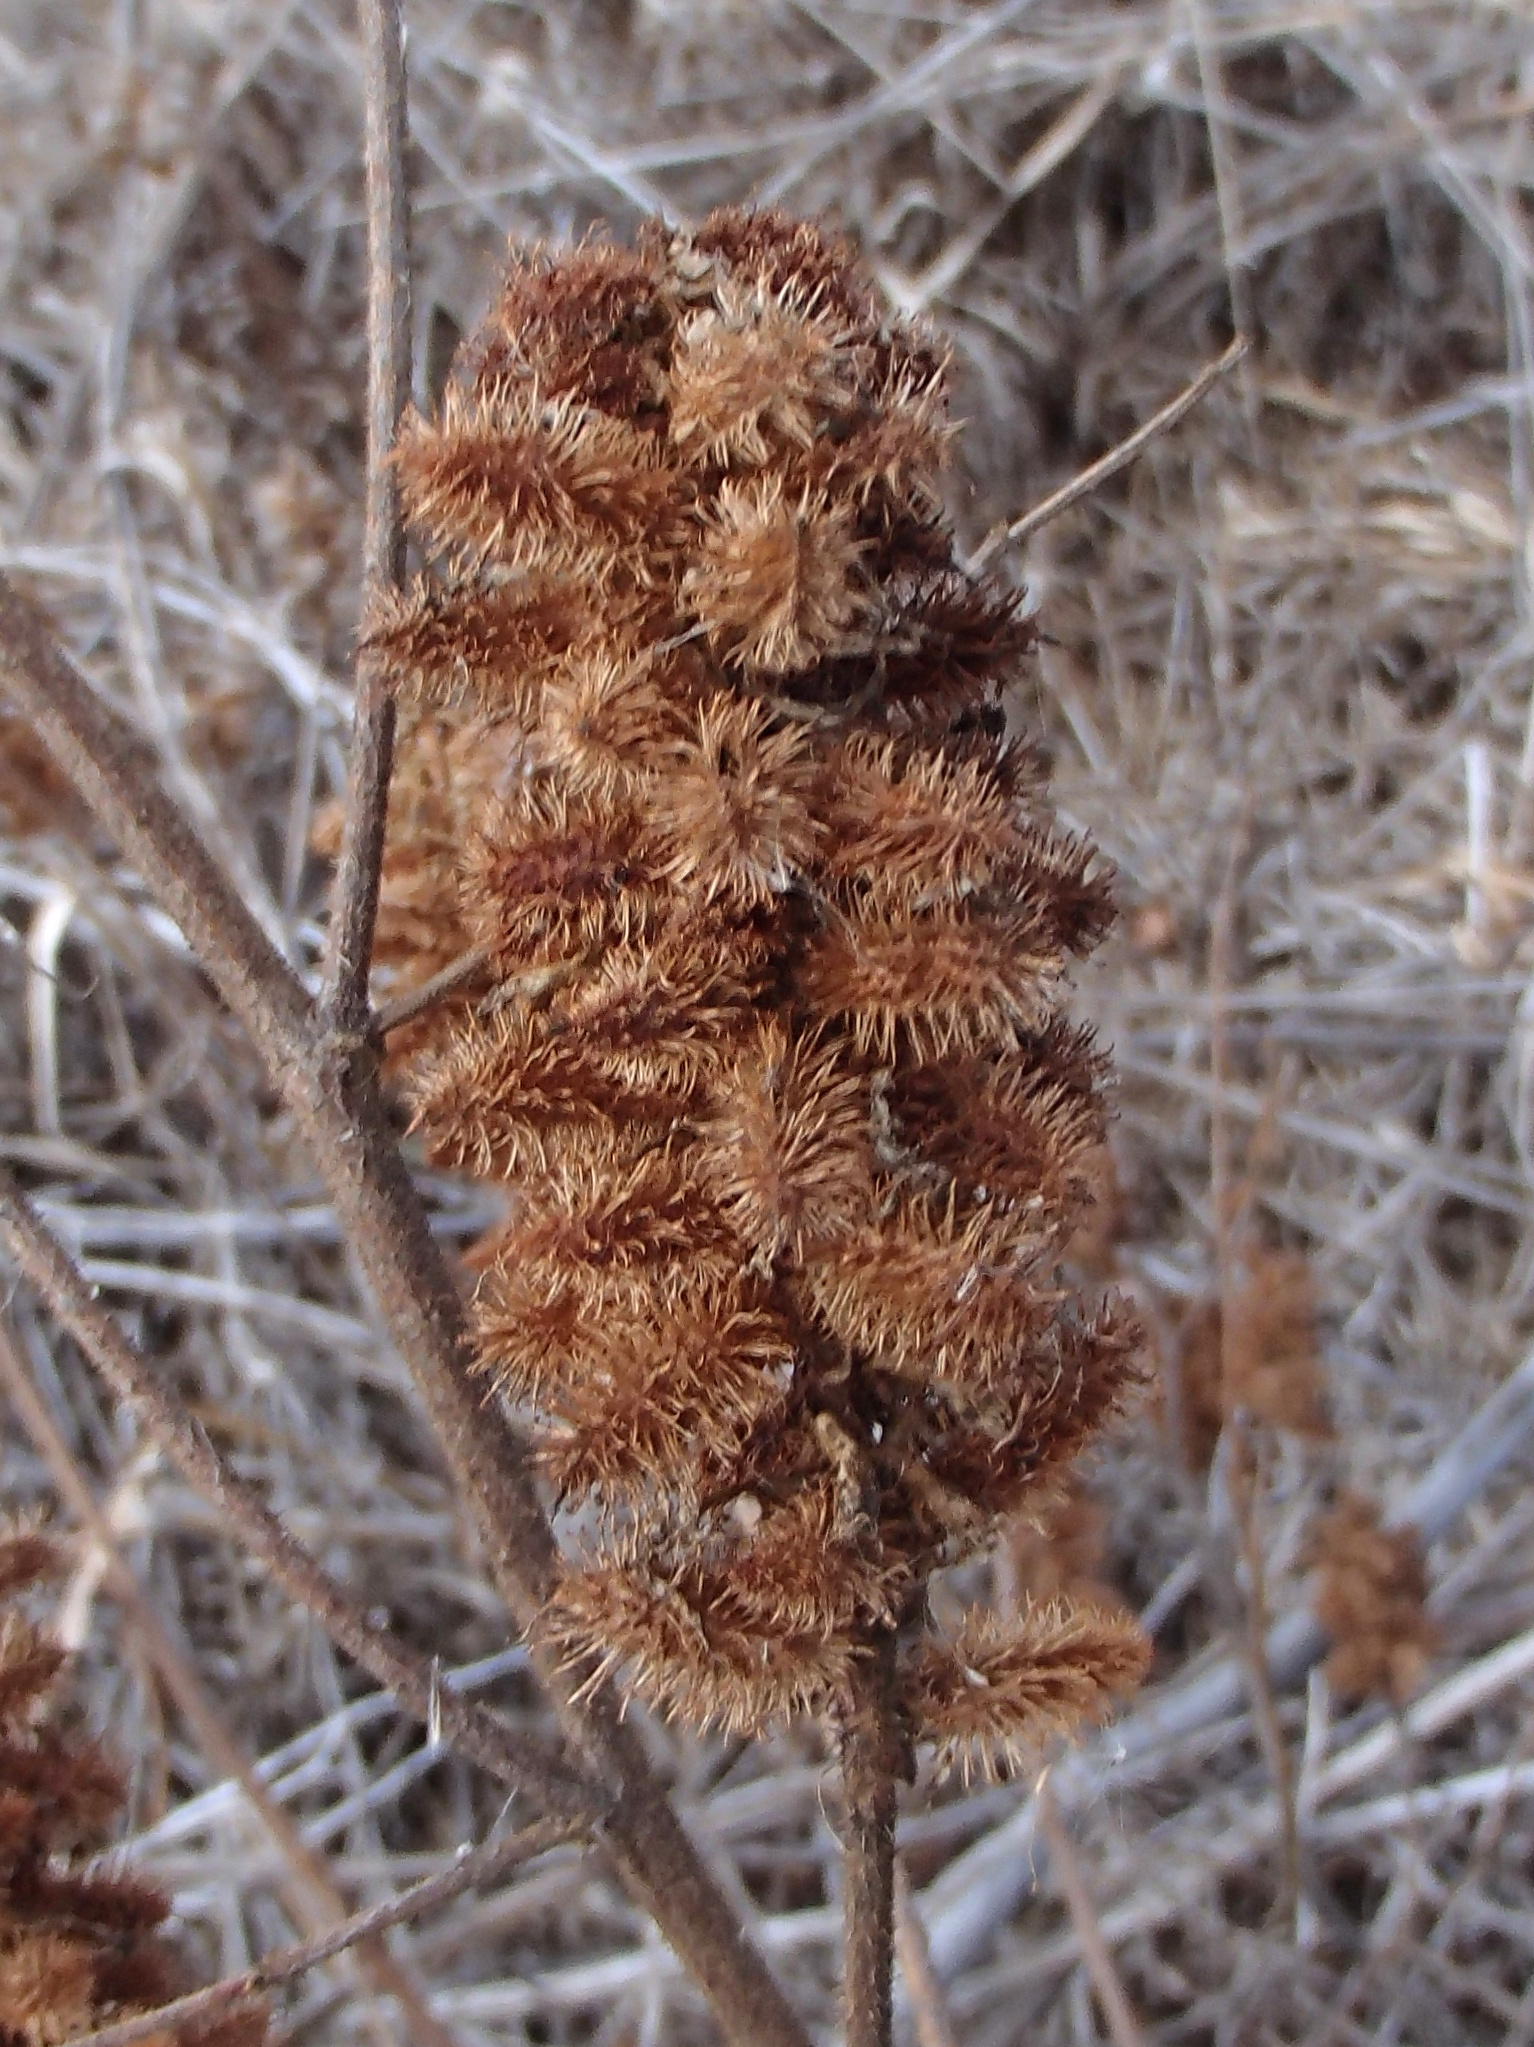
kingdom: Plantae
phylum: Tracheophyta
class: Magnoliopsida
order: Fabales
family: Fabaceae
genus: Glycyrrhiza
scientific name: Glycyrrhiza lepidota
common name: American liquorice
